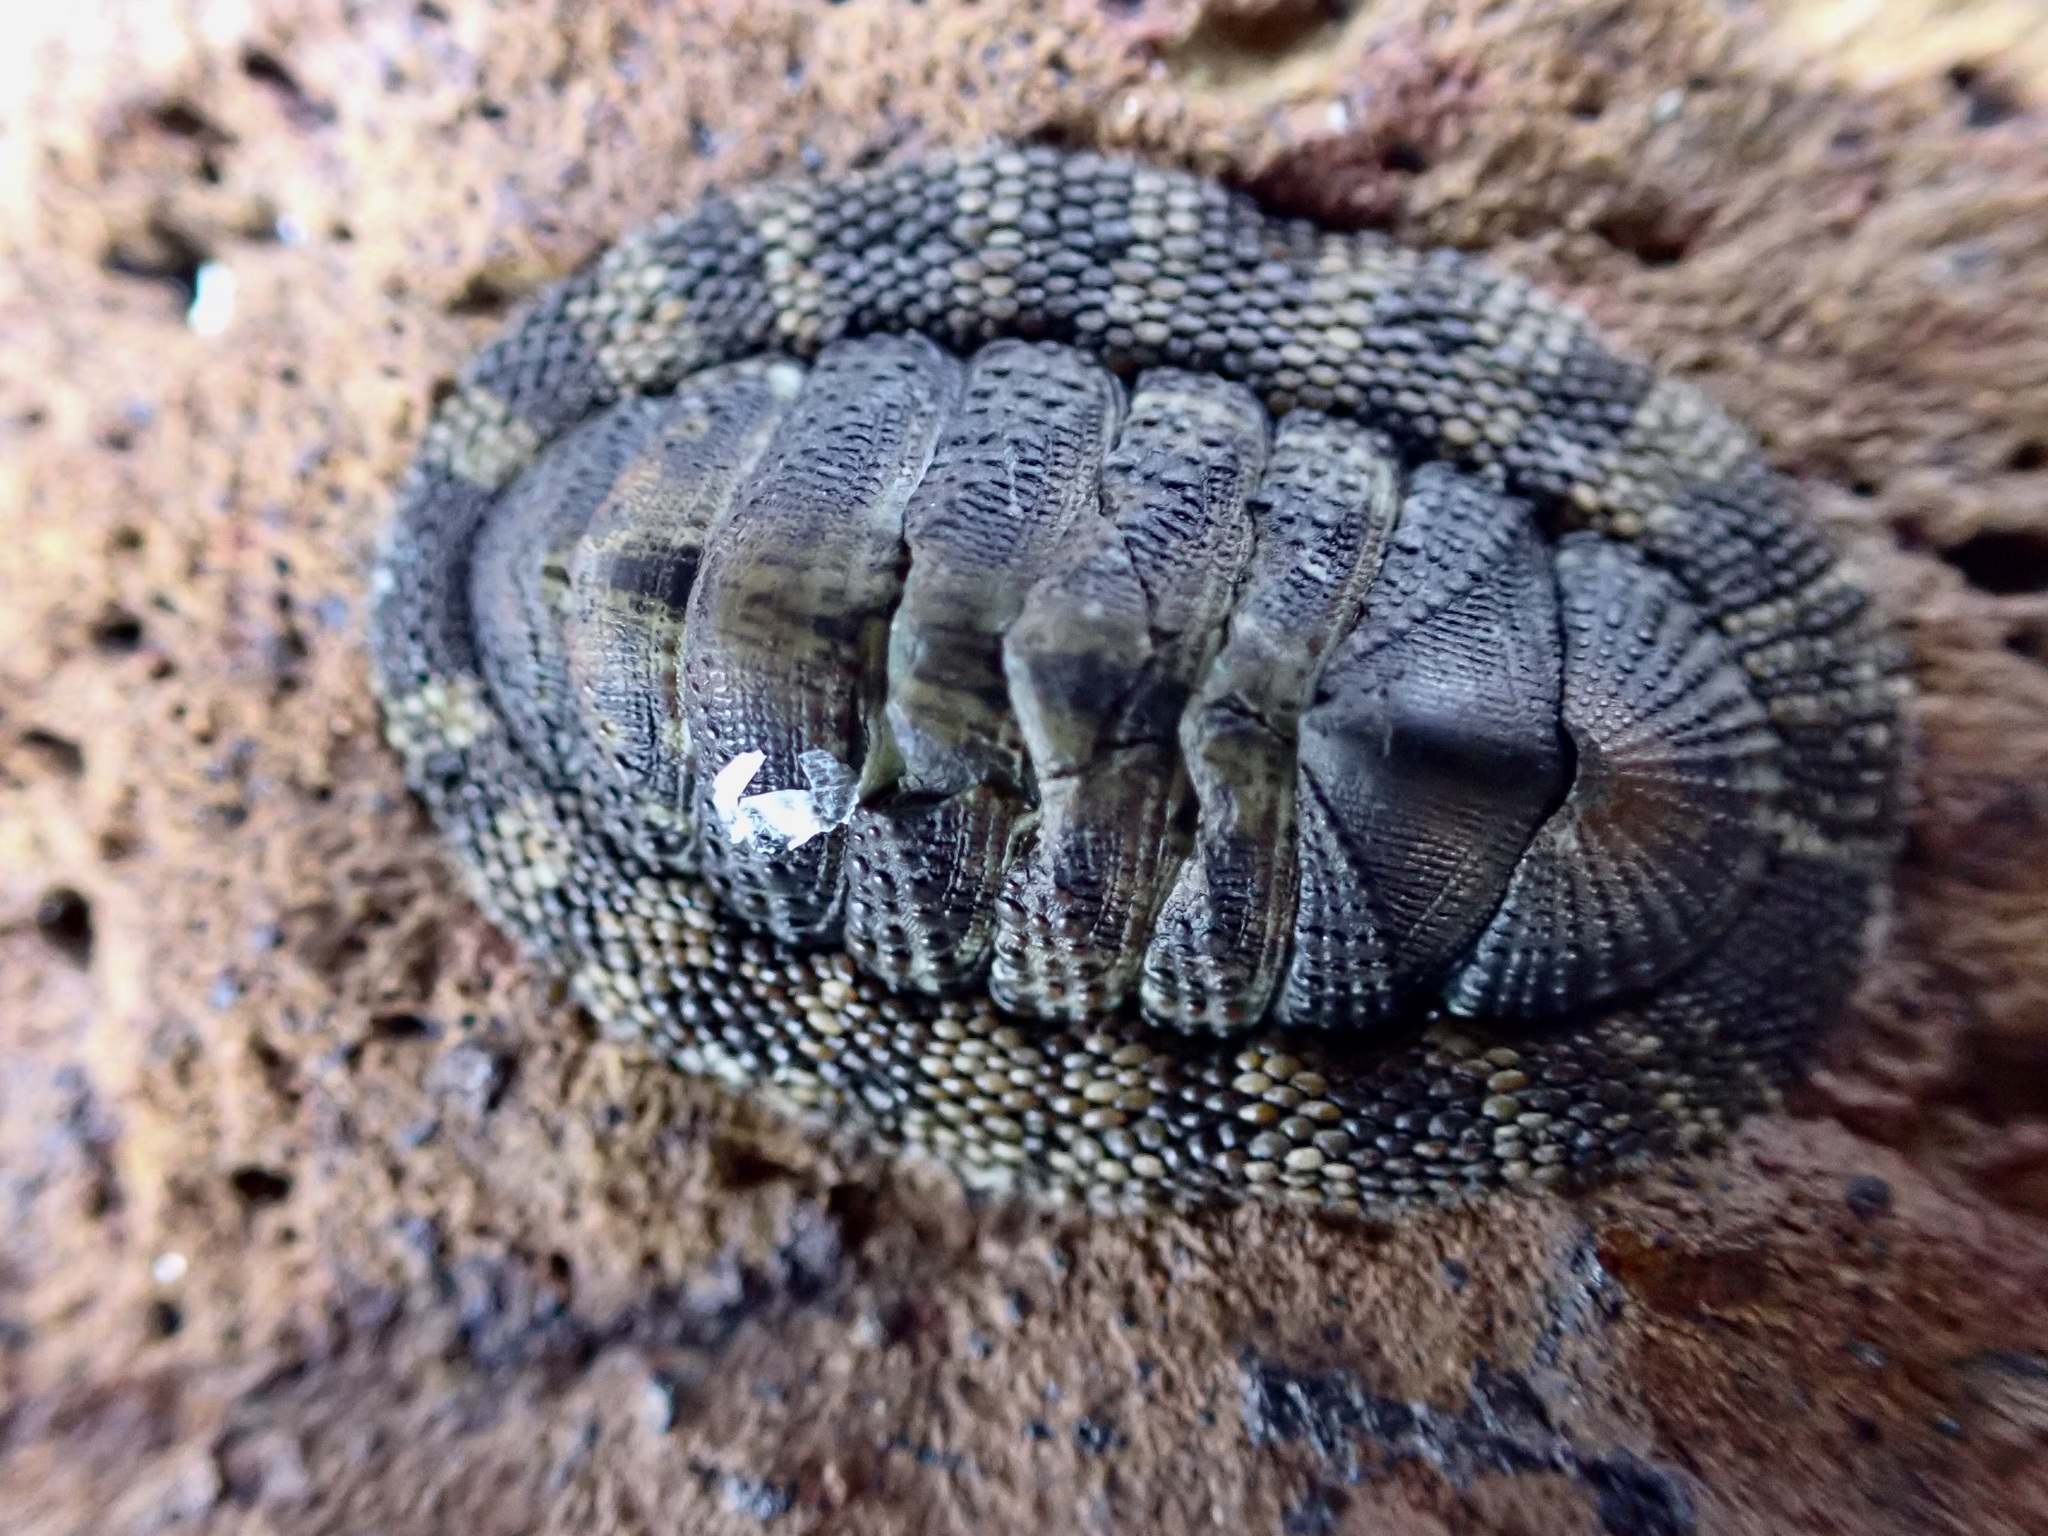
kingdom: Animalia
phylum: Mollusca
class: Polyplacophora
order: Chitonida
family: Chitonidae
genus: Sypharochiton
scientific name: Sypharochiton pelliserpentis
